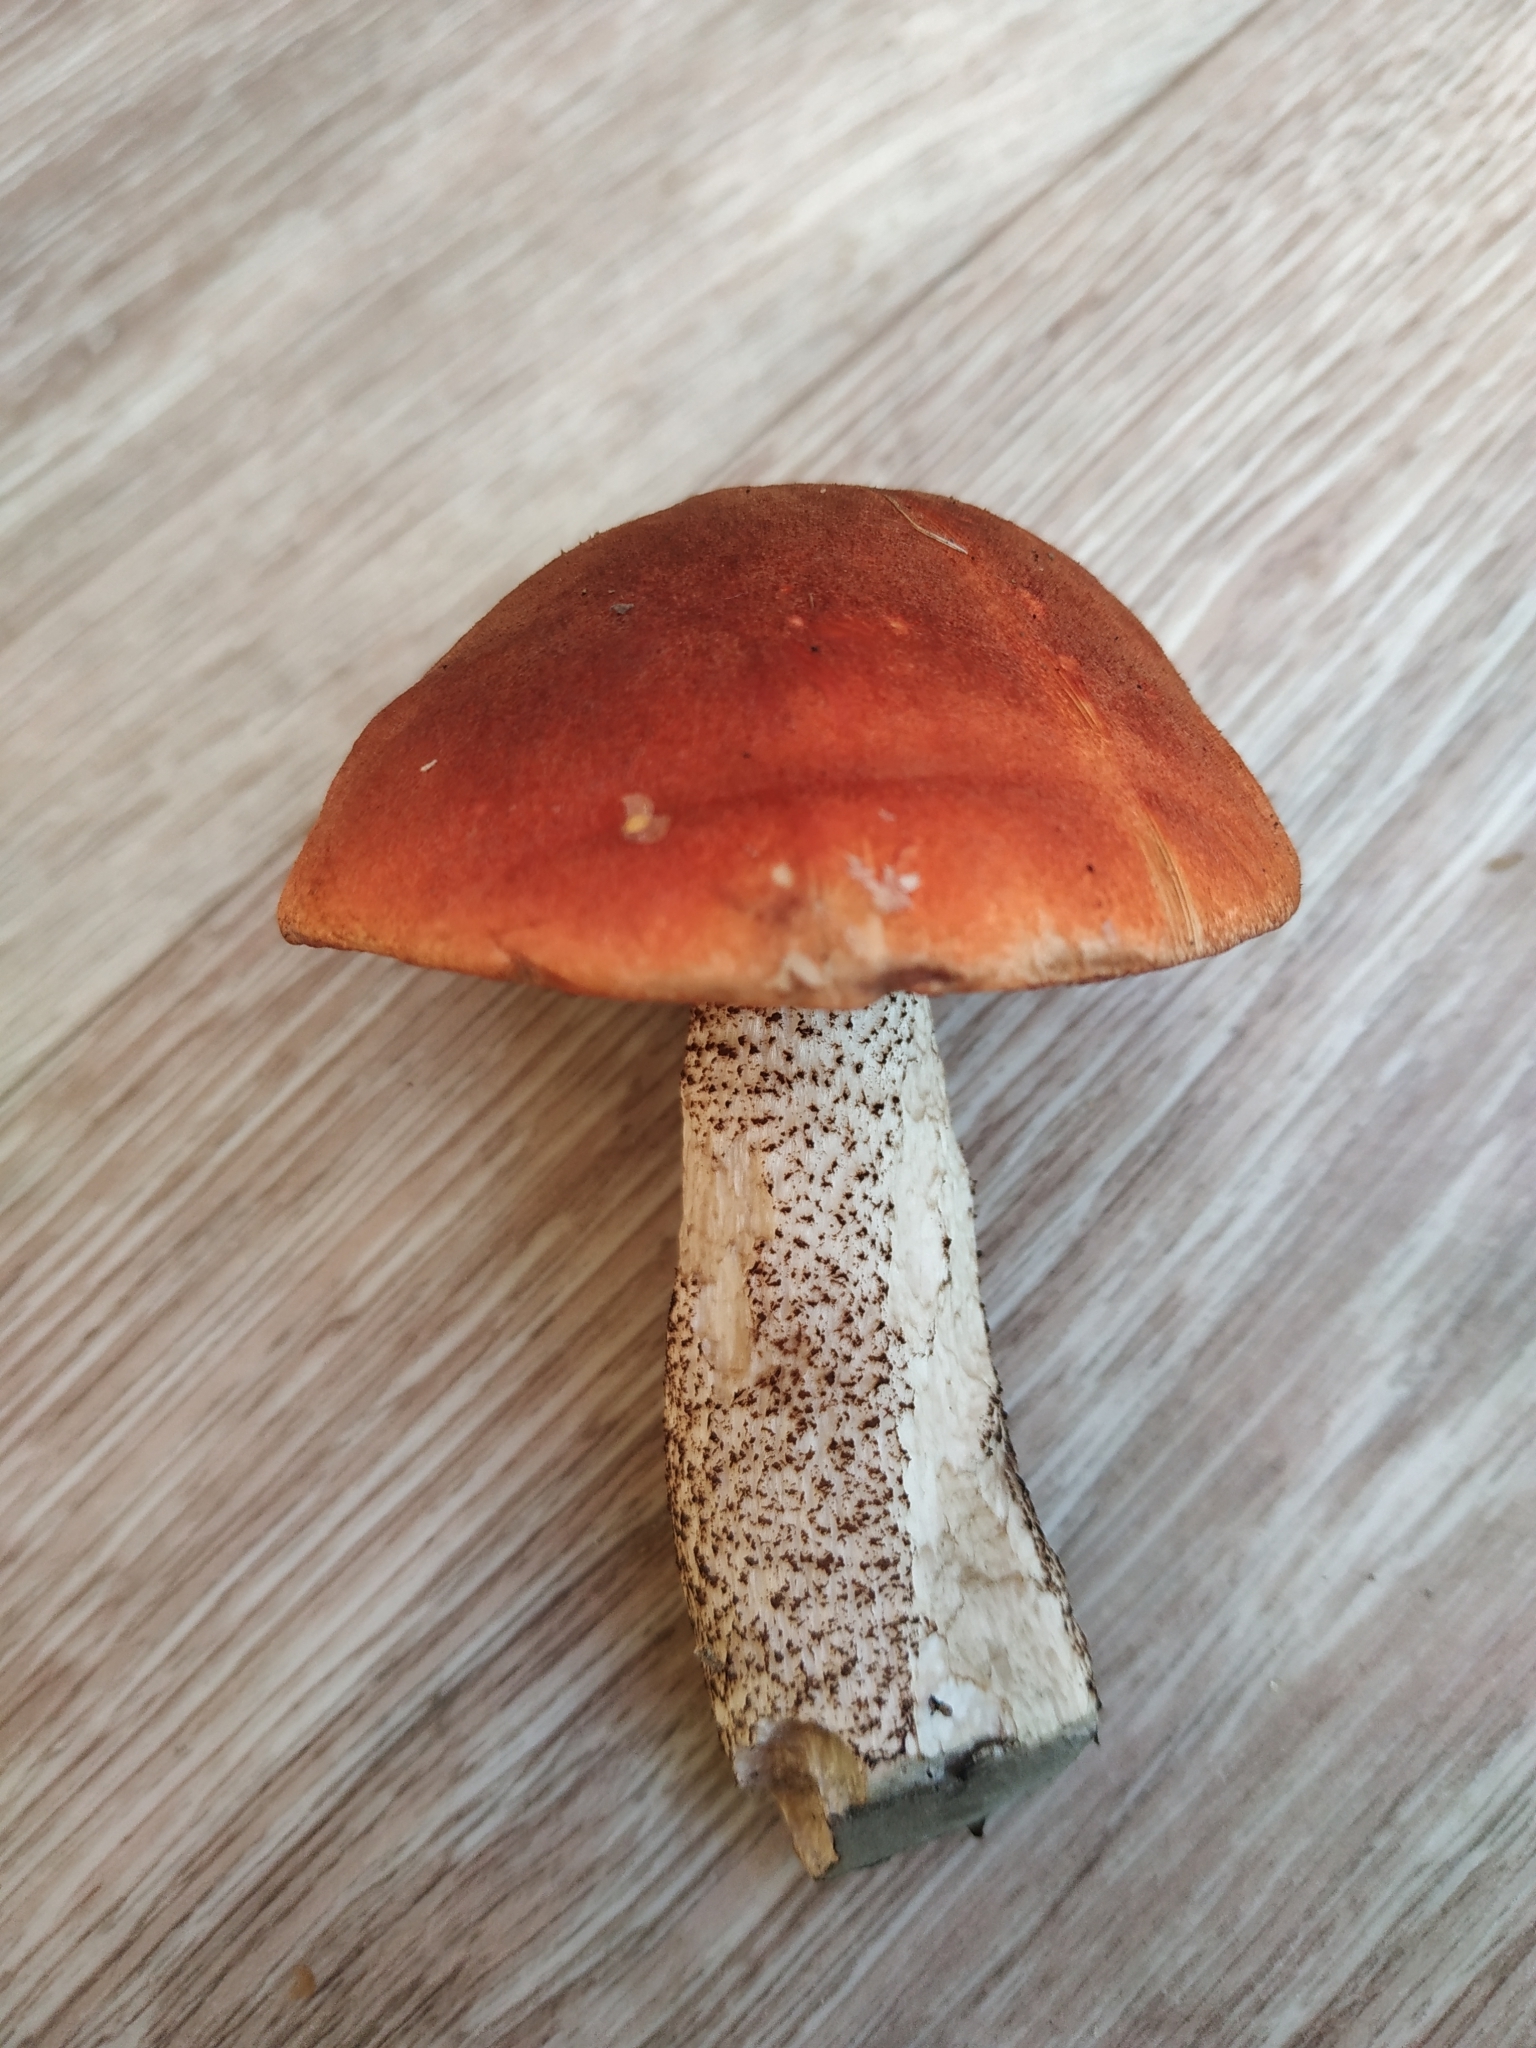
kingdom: Fungi
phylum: Basidiomycota
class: Agaricomycetes
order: Boletales
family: Boletaceae
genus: Leccinum
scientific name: Leccinum aurantiacum
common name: Orange bolete
